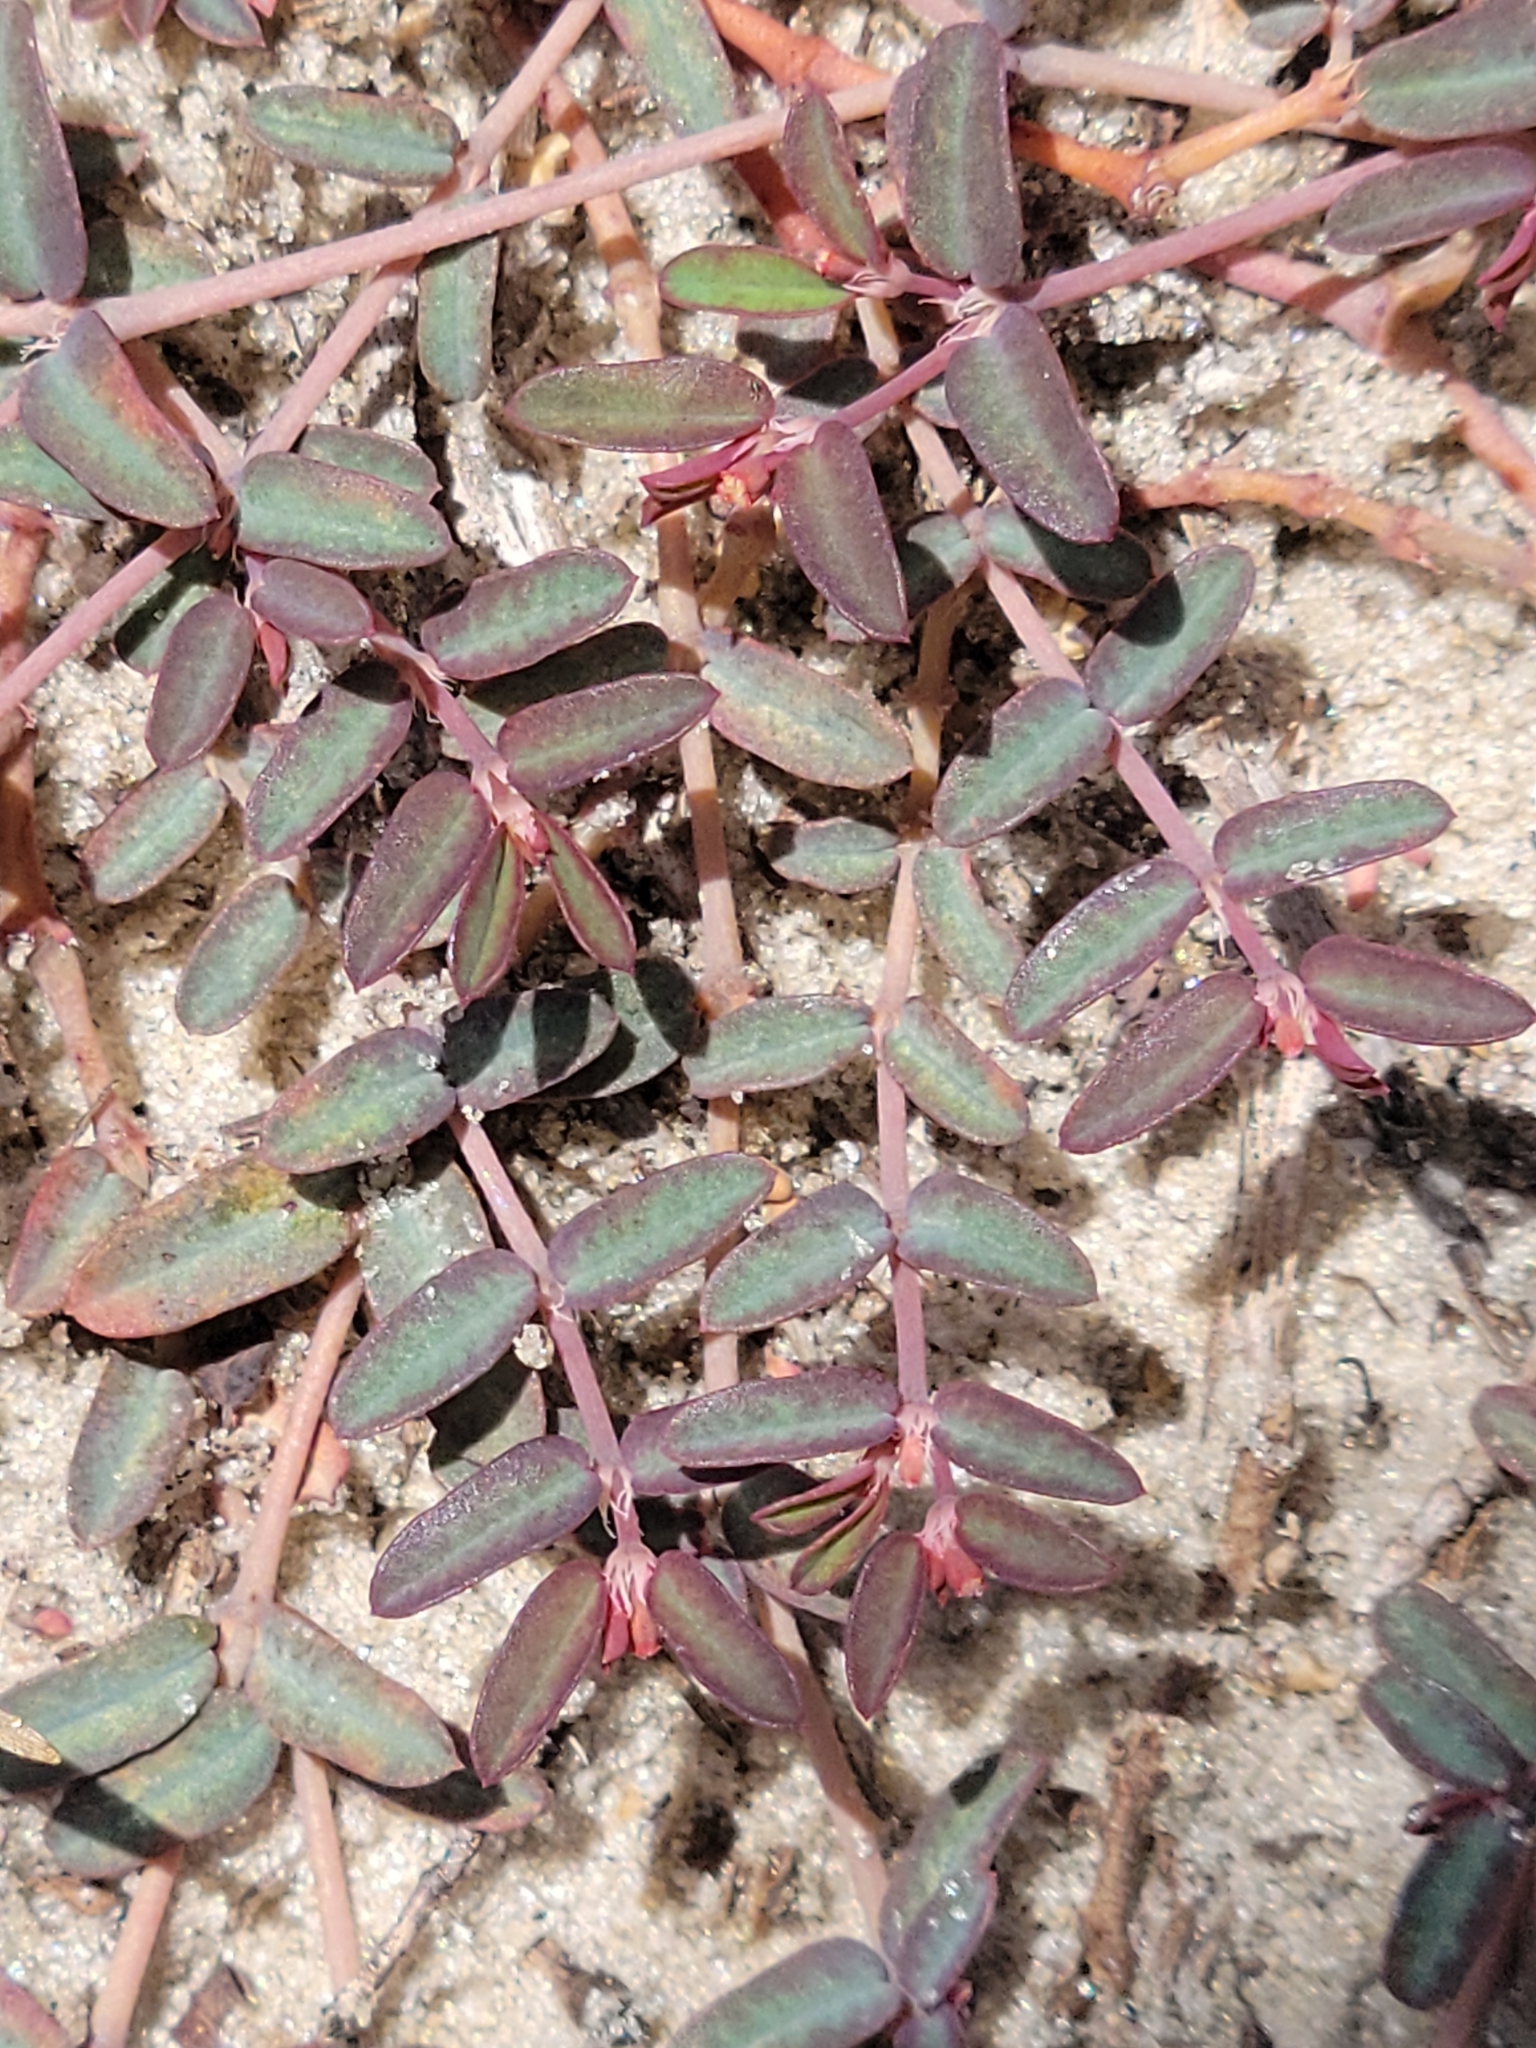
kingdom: Plantae
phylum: Tracheophyta
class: Magnoliopsida
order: Malpighiales
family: Euphorbiaceae
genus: Euphorbia
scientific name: Euphorbia cumulicola
